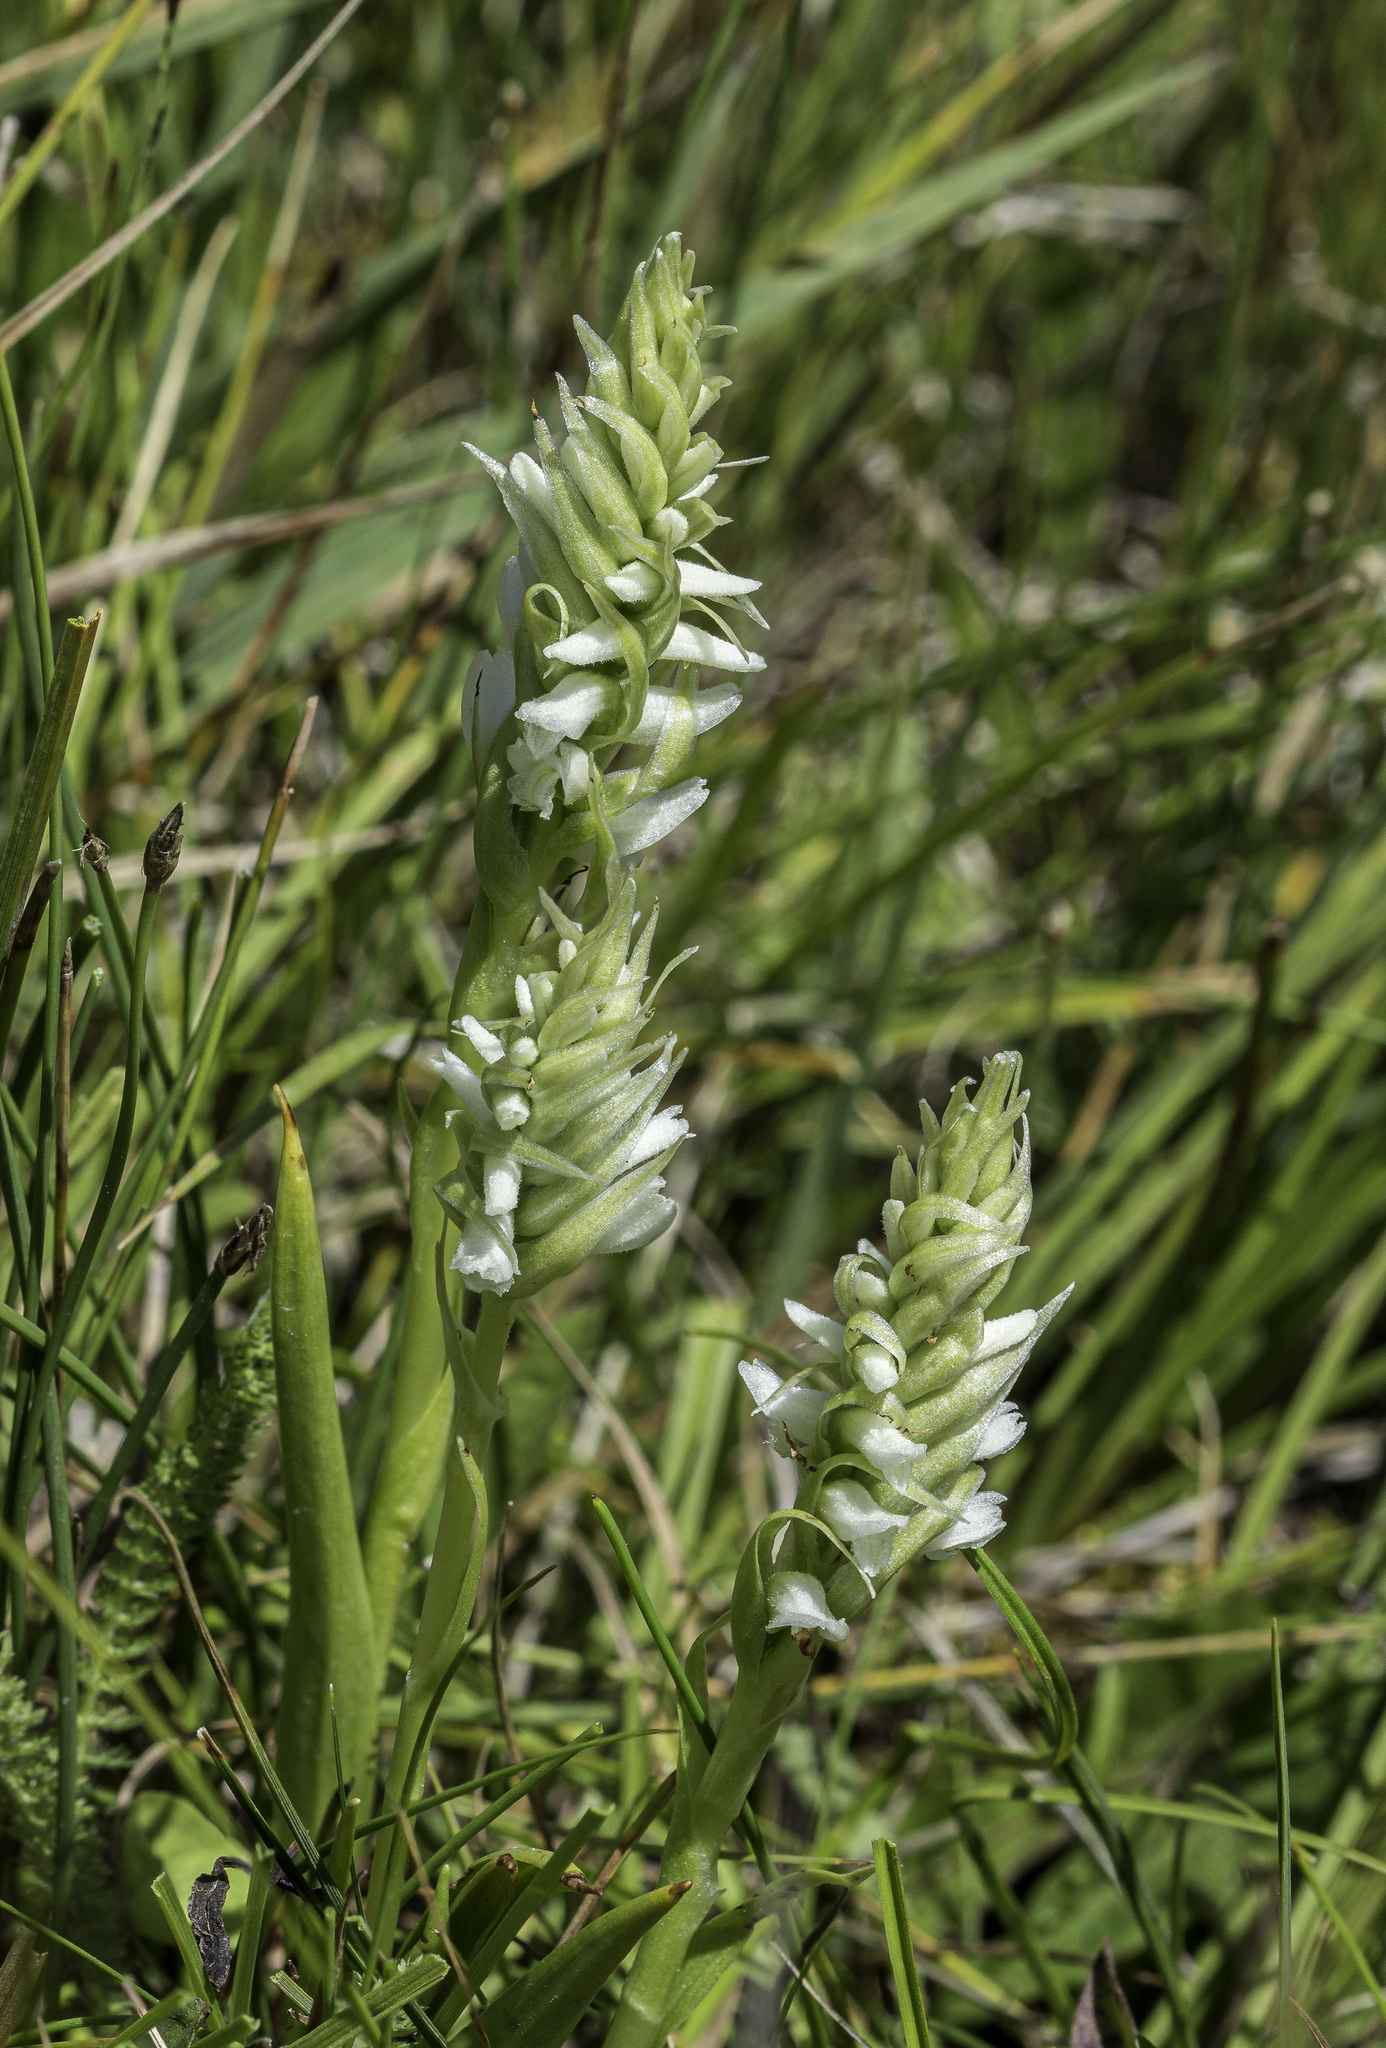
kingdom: Plantae
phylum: Tracheophyta
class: Liliopsida
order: Asparagales
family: Orchidaceae
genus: Spiranthes
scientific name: Spiranthes romanzoffiana
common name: Irish lady's-tresses
